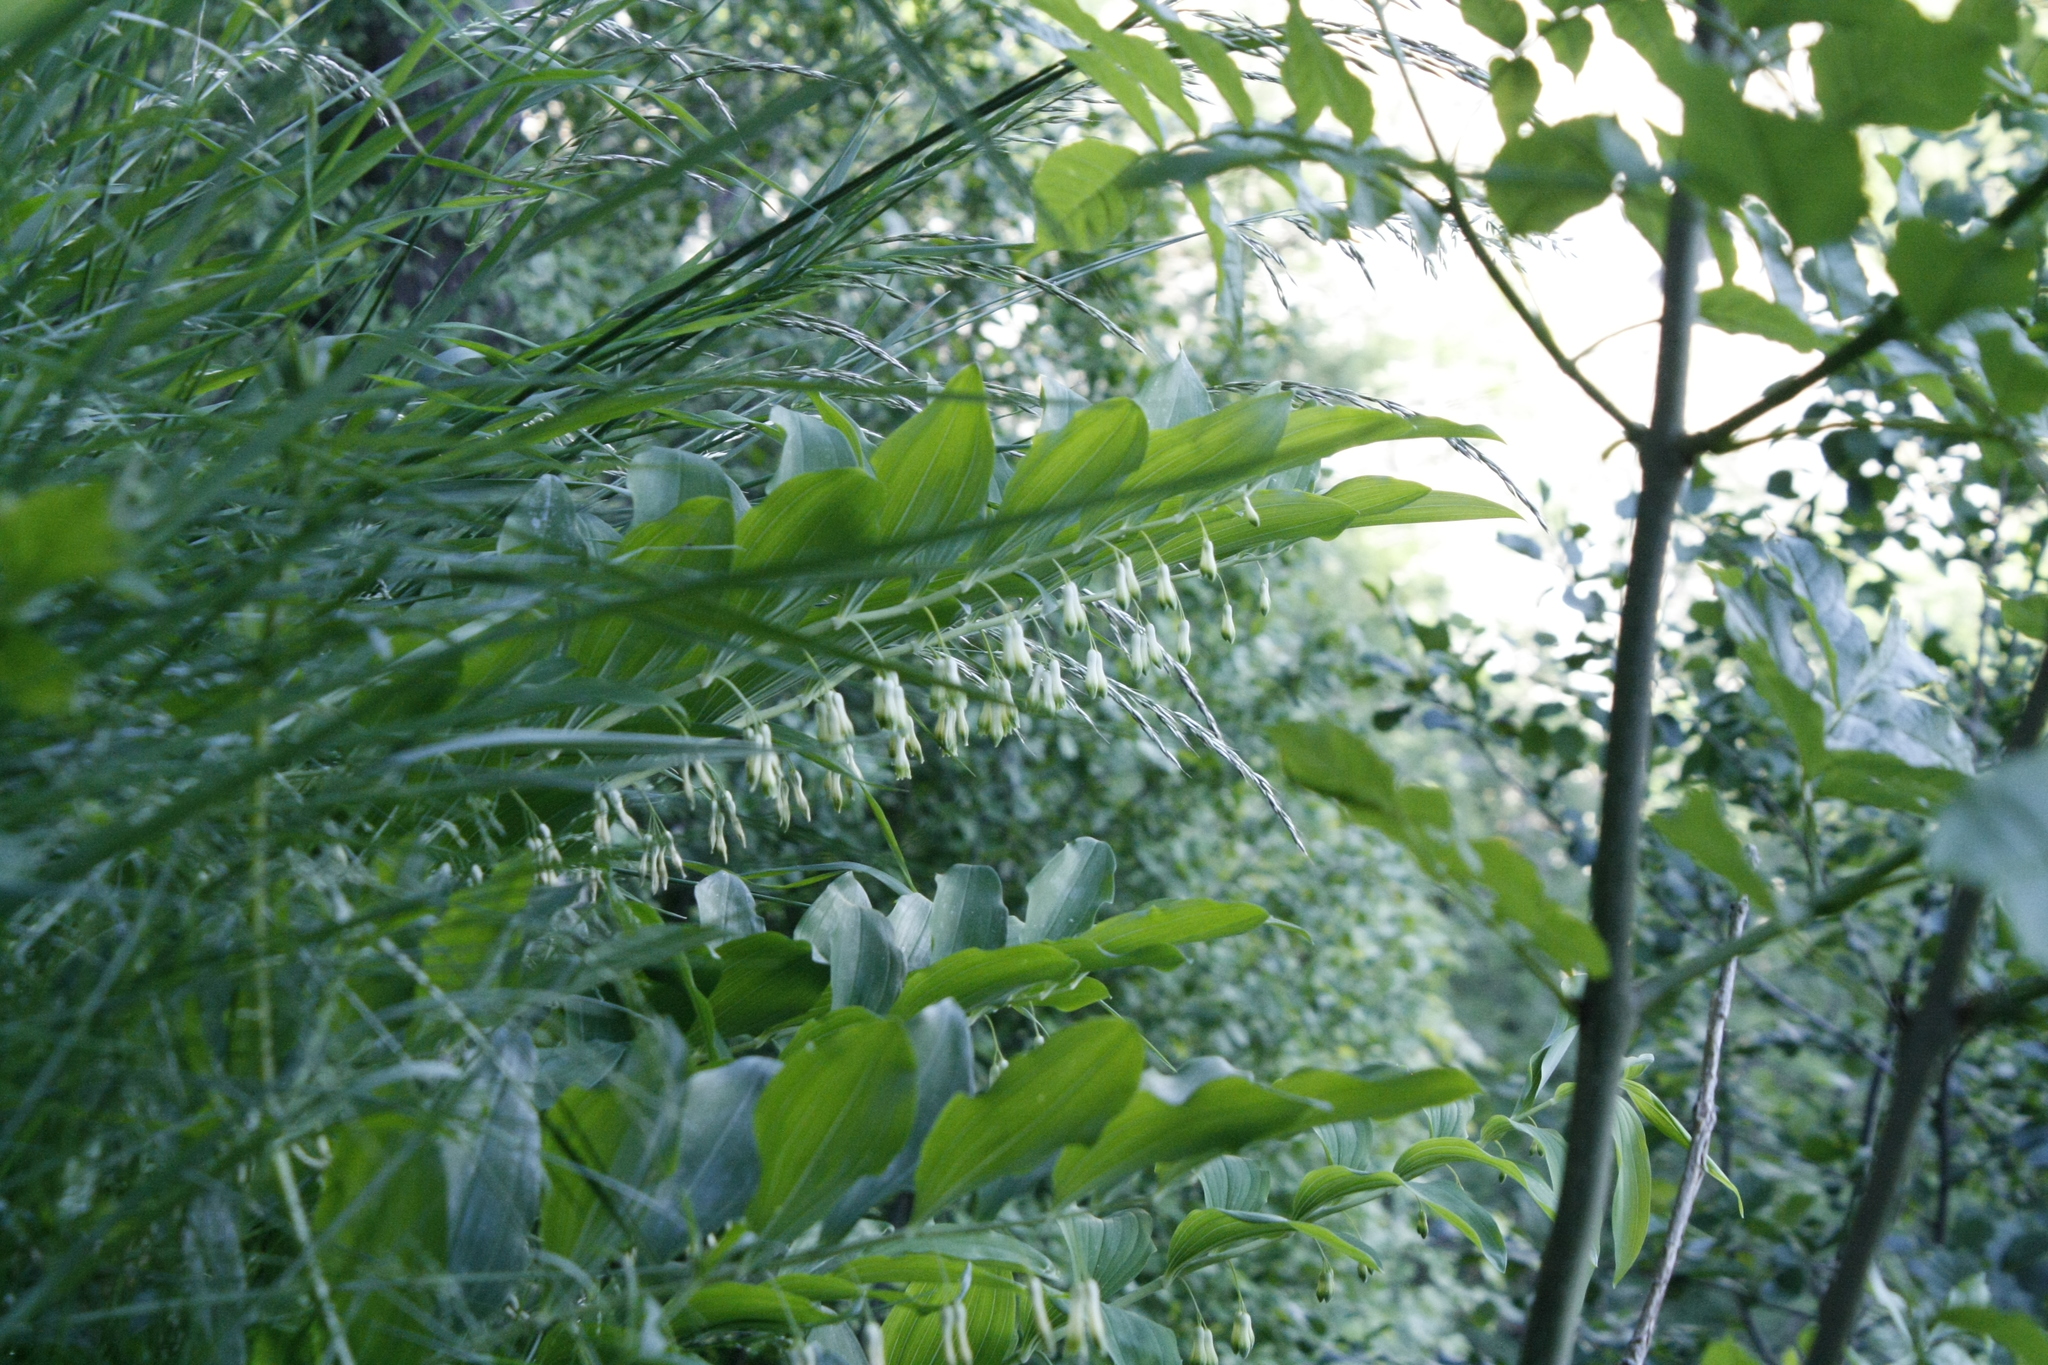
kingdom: Plantae
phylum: Tracheophyta
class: Liliopsida
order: Asparagales
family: Asparagaceae
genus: Polygonatum
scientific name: Polygonatum multiflorum
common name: Solomon's-seal
